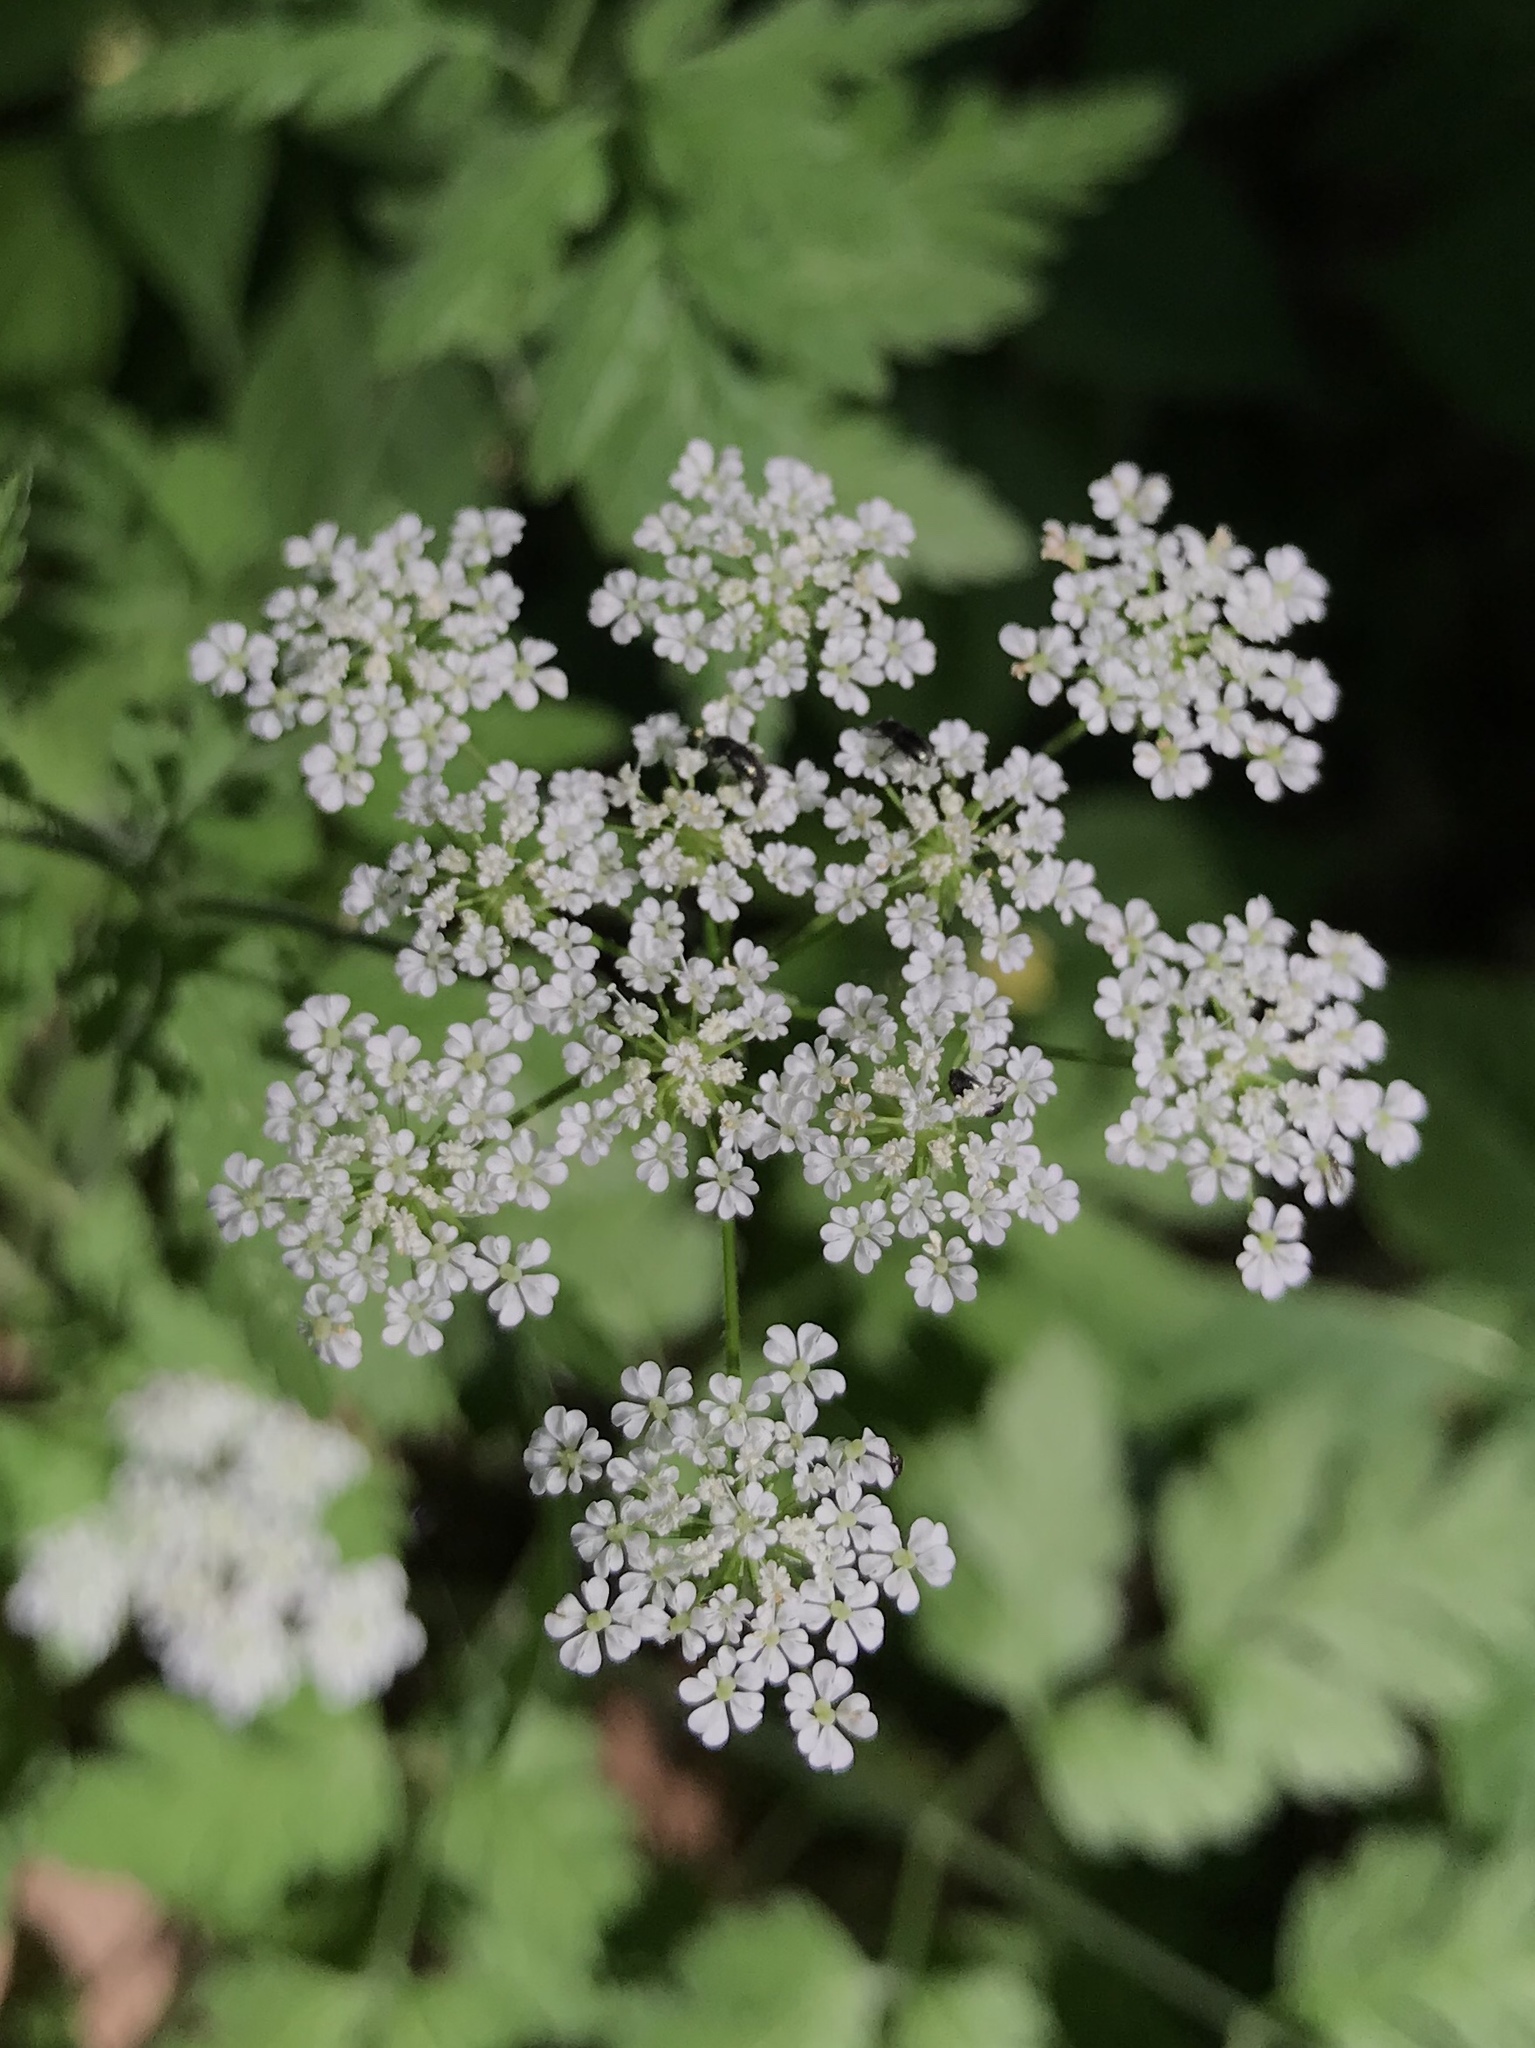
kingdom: Plantae
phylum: Tracheophyta
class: Magnoliopsida
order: Apiales
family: Apiaceae
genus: Chaerophyllum
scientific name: Chaerophyllum temulum
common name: Rough chervil
